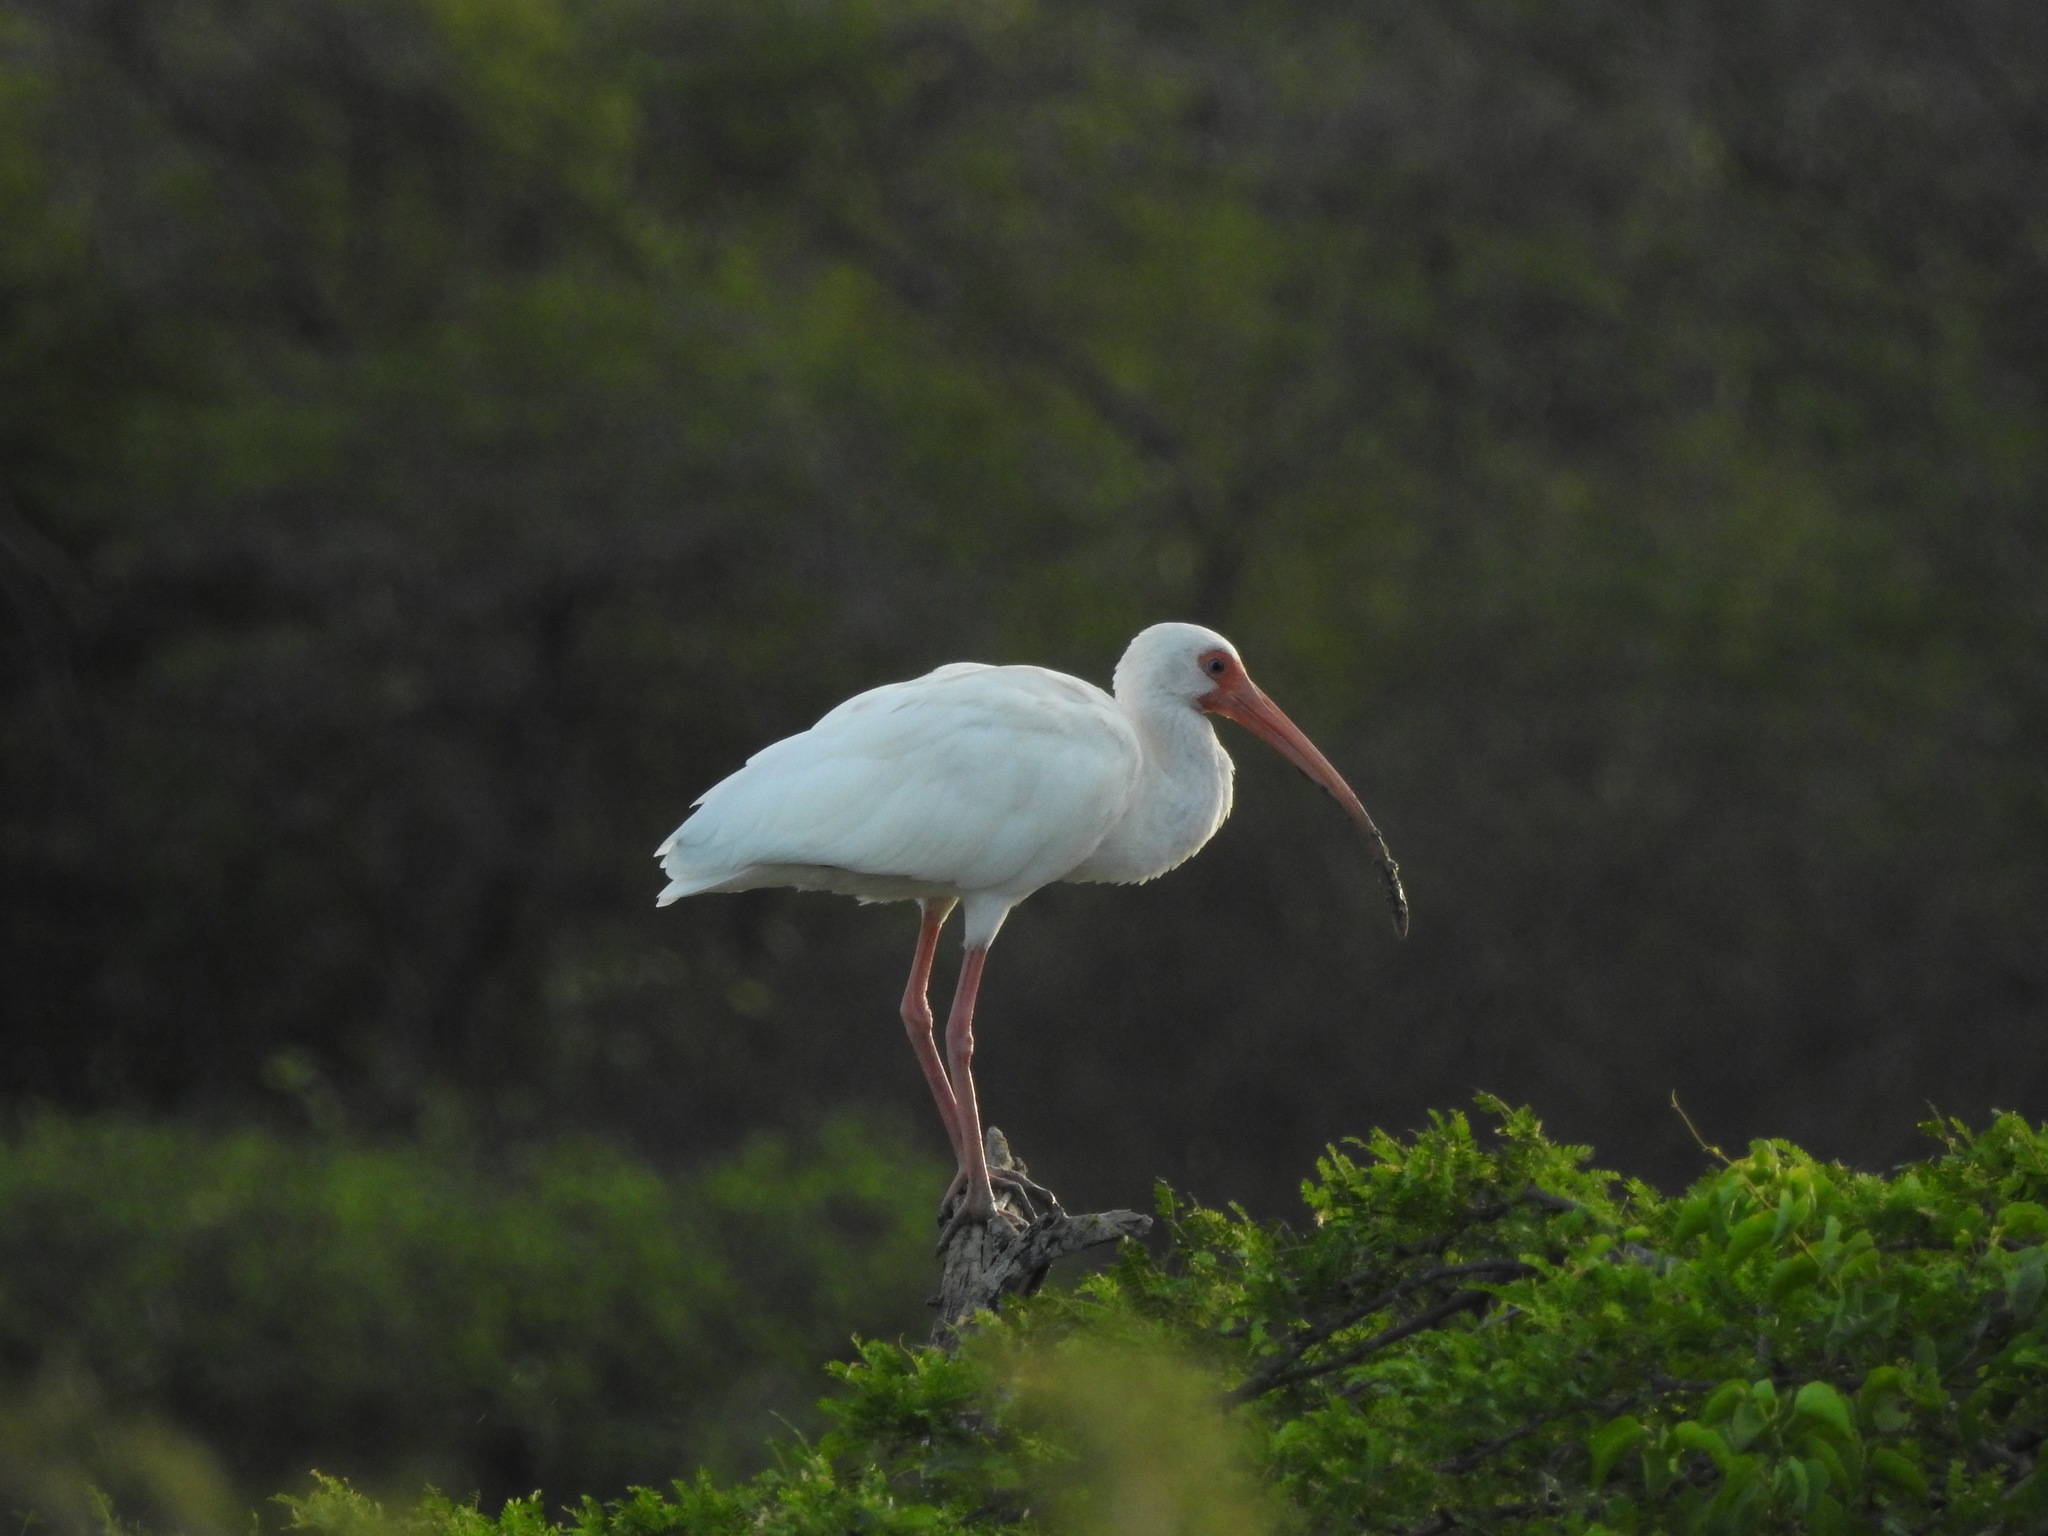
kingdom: Animalia
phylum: Chordata
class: Aves
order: Pelecaniformes
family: Threskiornithidae
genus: Eudocimus
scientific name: Eudocimus albus
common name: White ibis
